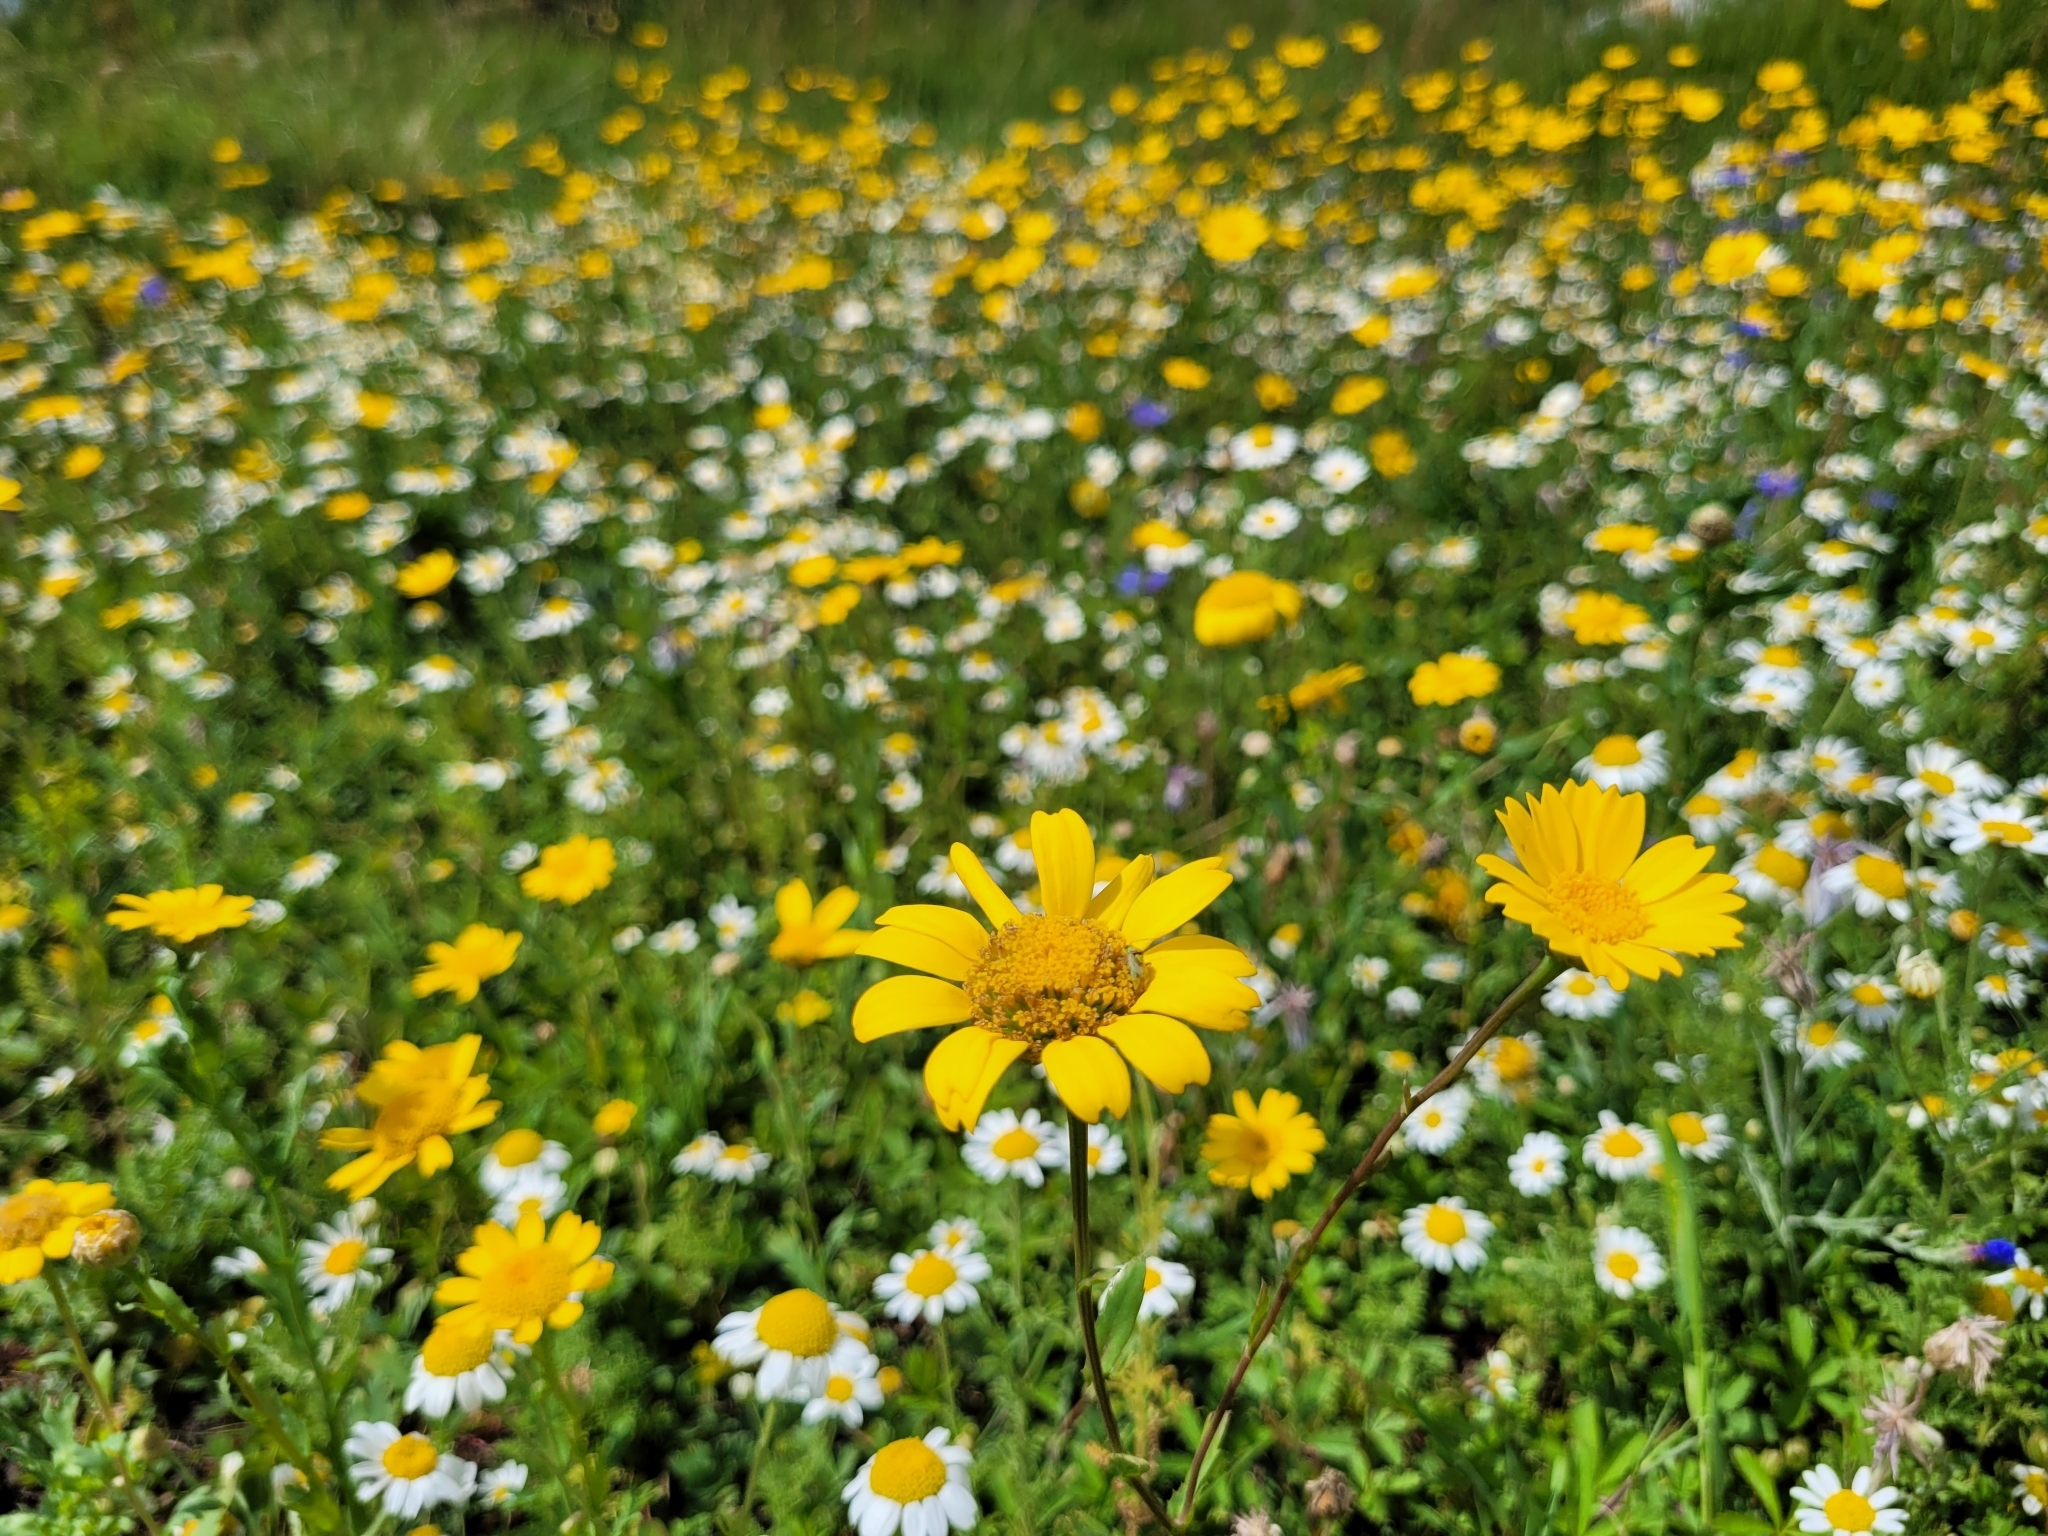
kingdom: Plantae
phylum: Tracheophyta
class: Magnoliopsida
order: Asterales
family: Asteraceae
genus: Glebionis
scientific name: Glebionis segetum
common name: Corndaisy
